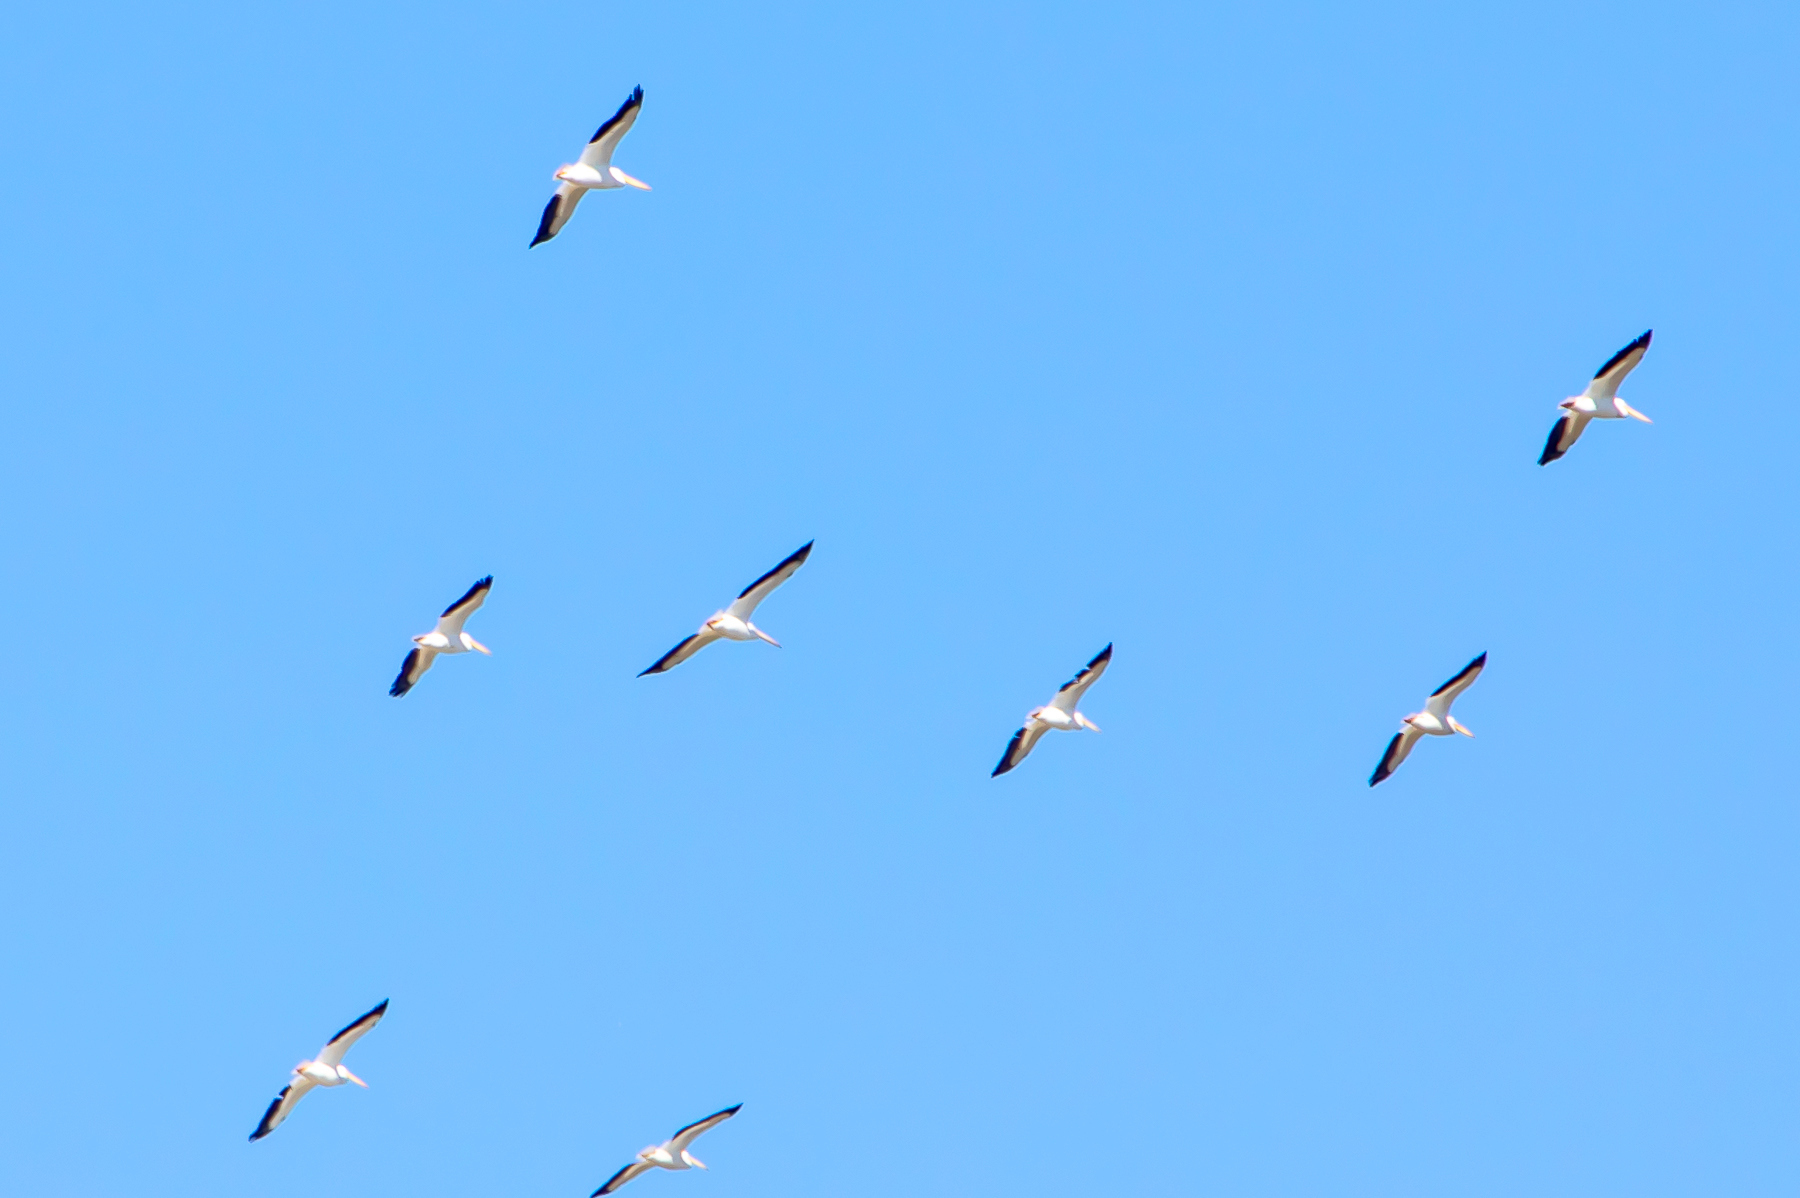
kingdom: Animalia
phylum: Chordata
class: Aves
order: Pelecaniformes
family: Pelecanidae
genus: Pelecanus
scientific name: Pelecanus erythrorhynchos
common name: American white pelican
